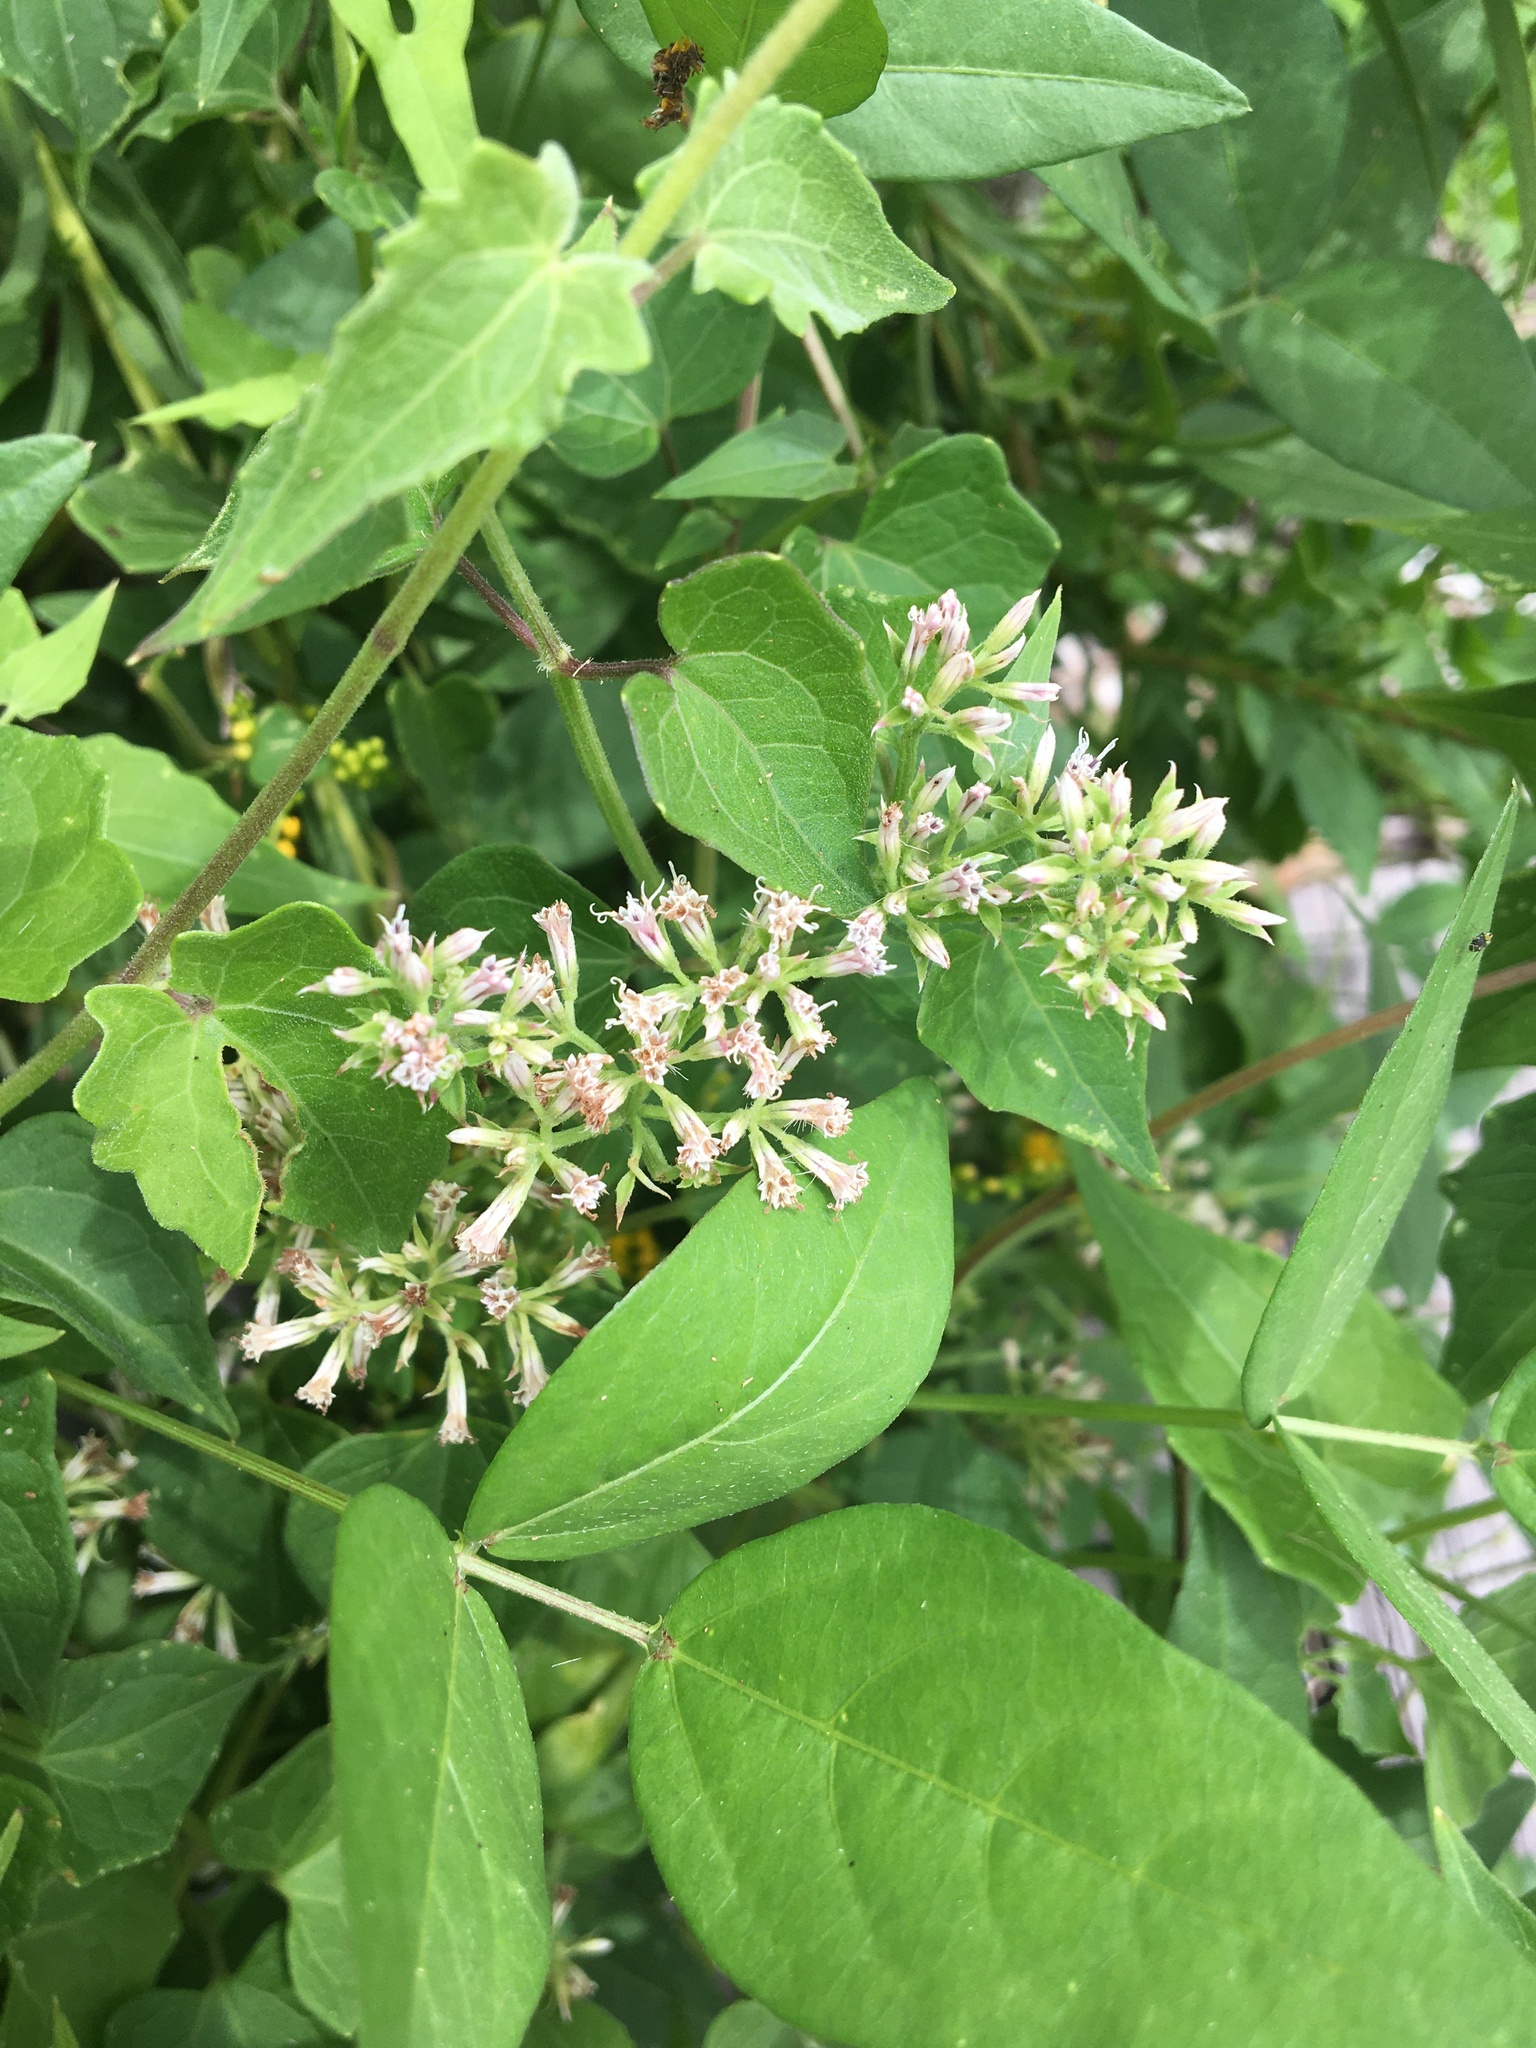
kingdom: Plantae
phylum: Tracheophyta
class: Magnoliopsida
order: Asterales
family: Asteraceae
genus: Mikania
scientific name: Mikania scandens
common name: Climbing hempvine
